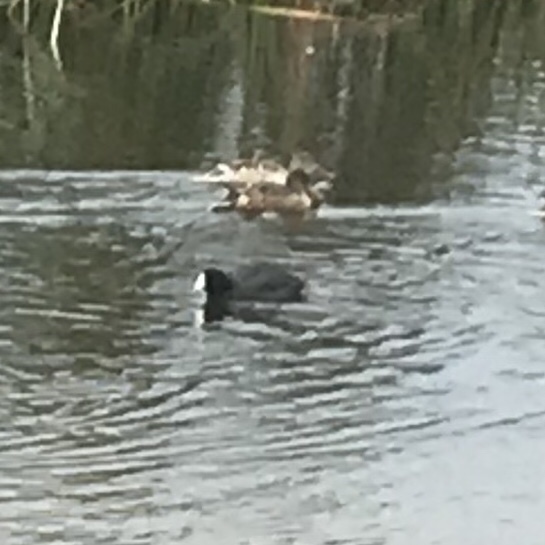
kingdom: Animalia
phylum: Chordata
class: Aves
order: Gruiformes
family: Rallidae
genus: Fulica
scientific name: Fulica americana
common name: American coot
